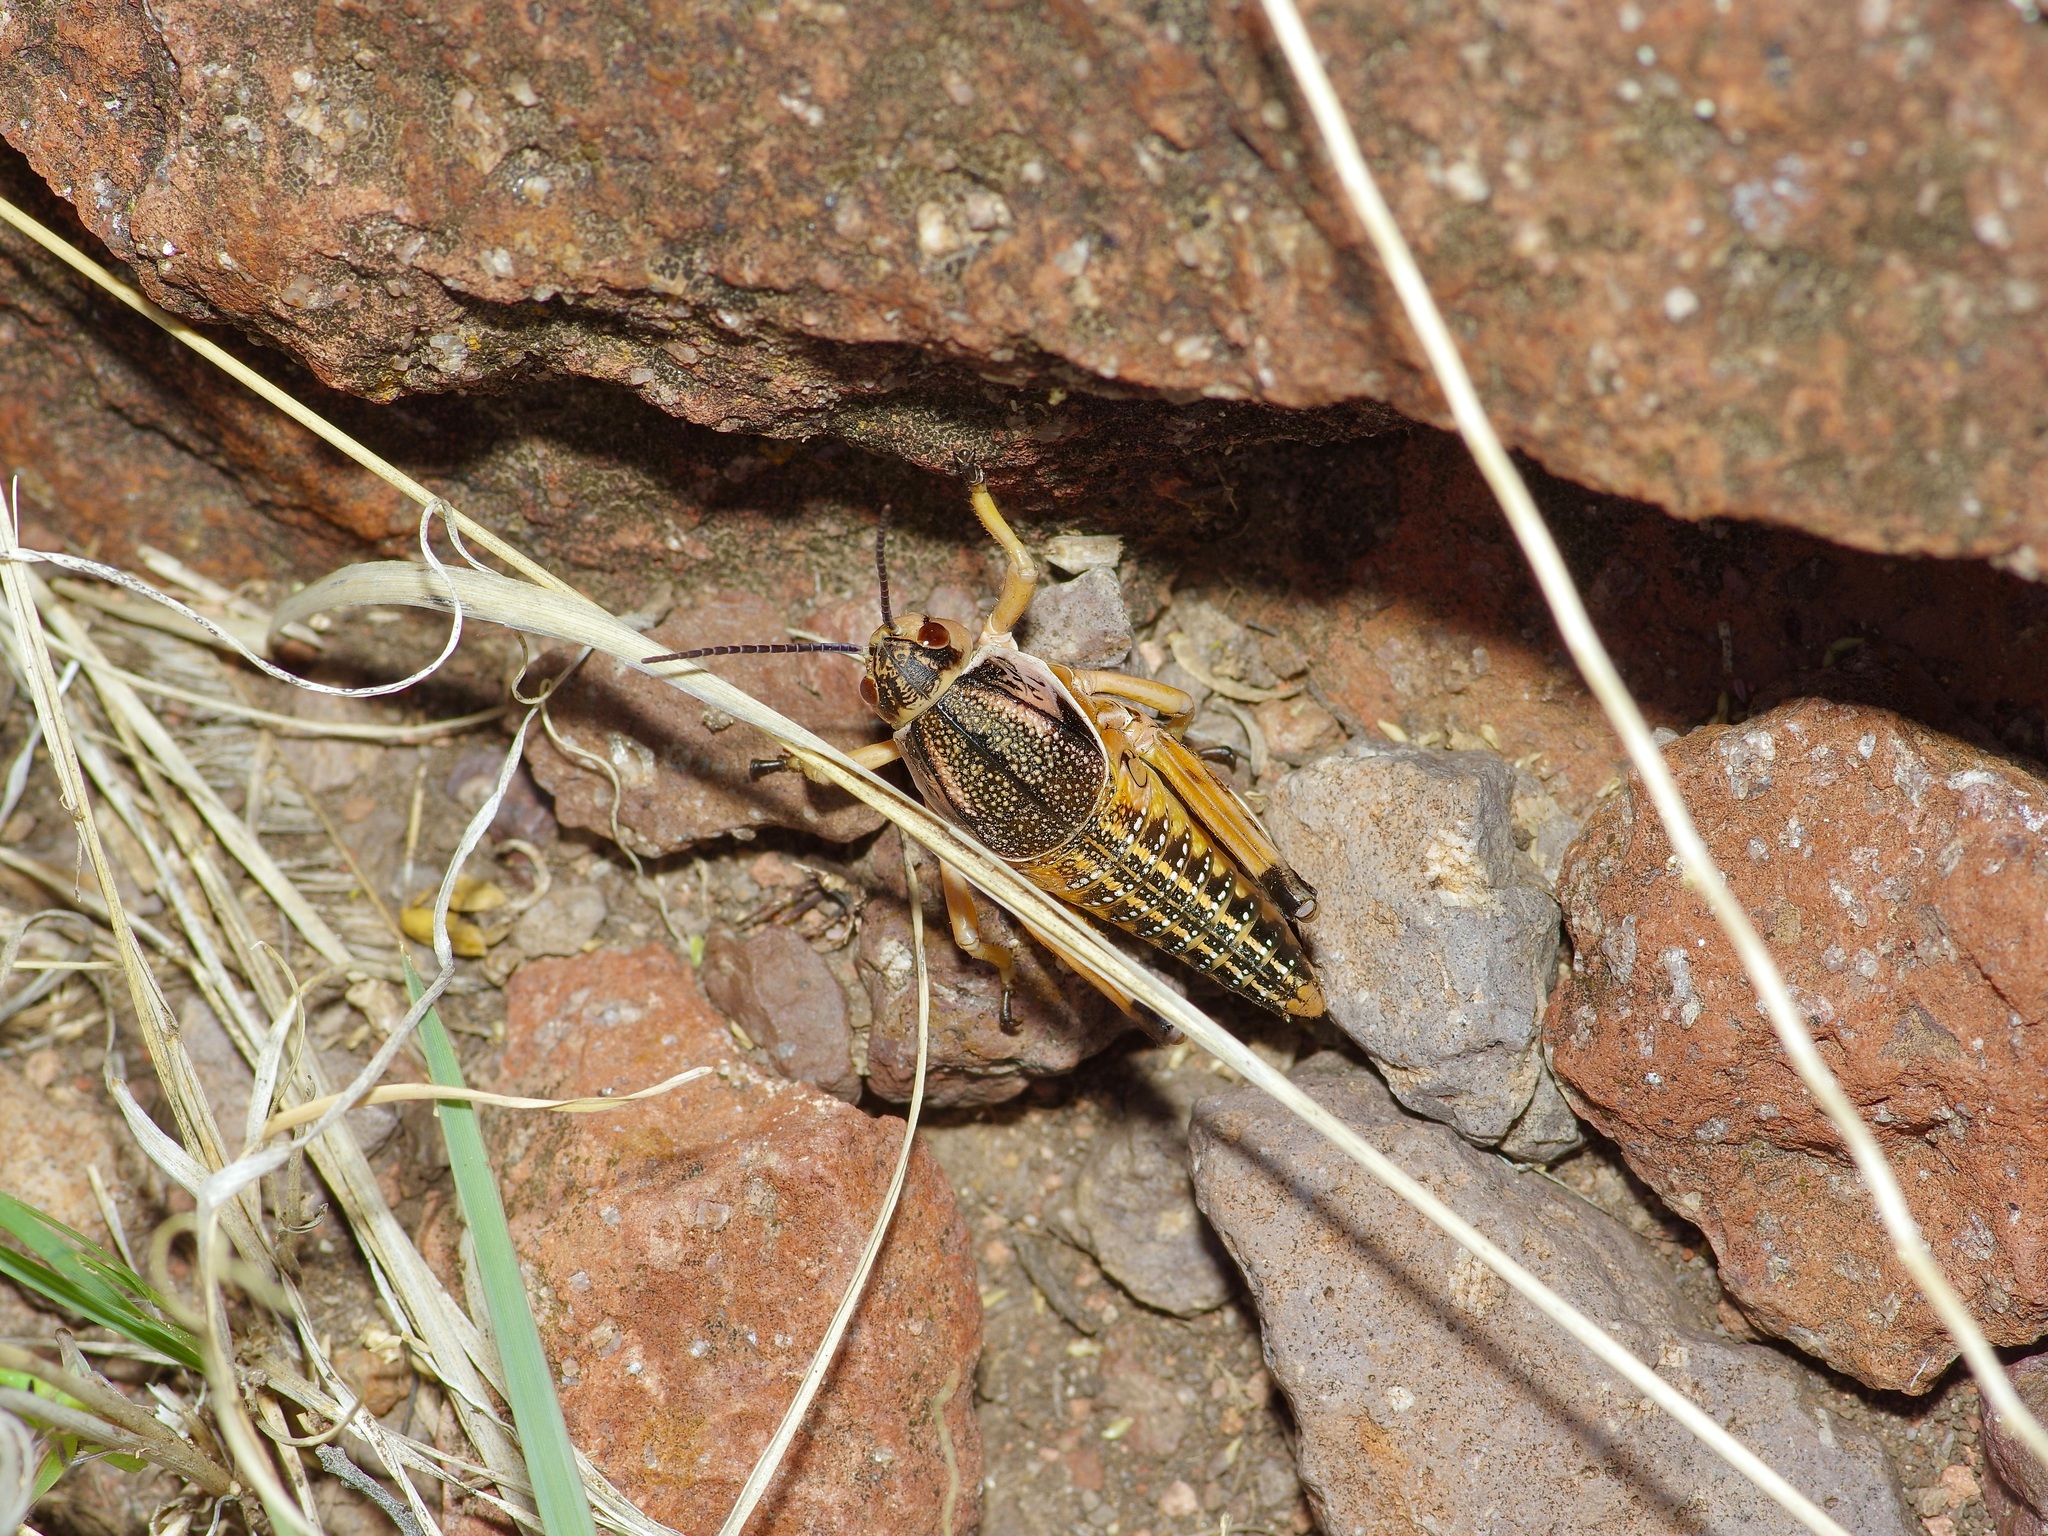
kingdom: Animalia
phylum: Arthropoda
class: Insecta
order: Orthoptera
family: Romaleidae
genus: Brachystola
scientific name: Brachystola magna
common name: Plains lubber grasshopper
